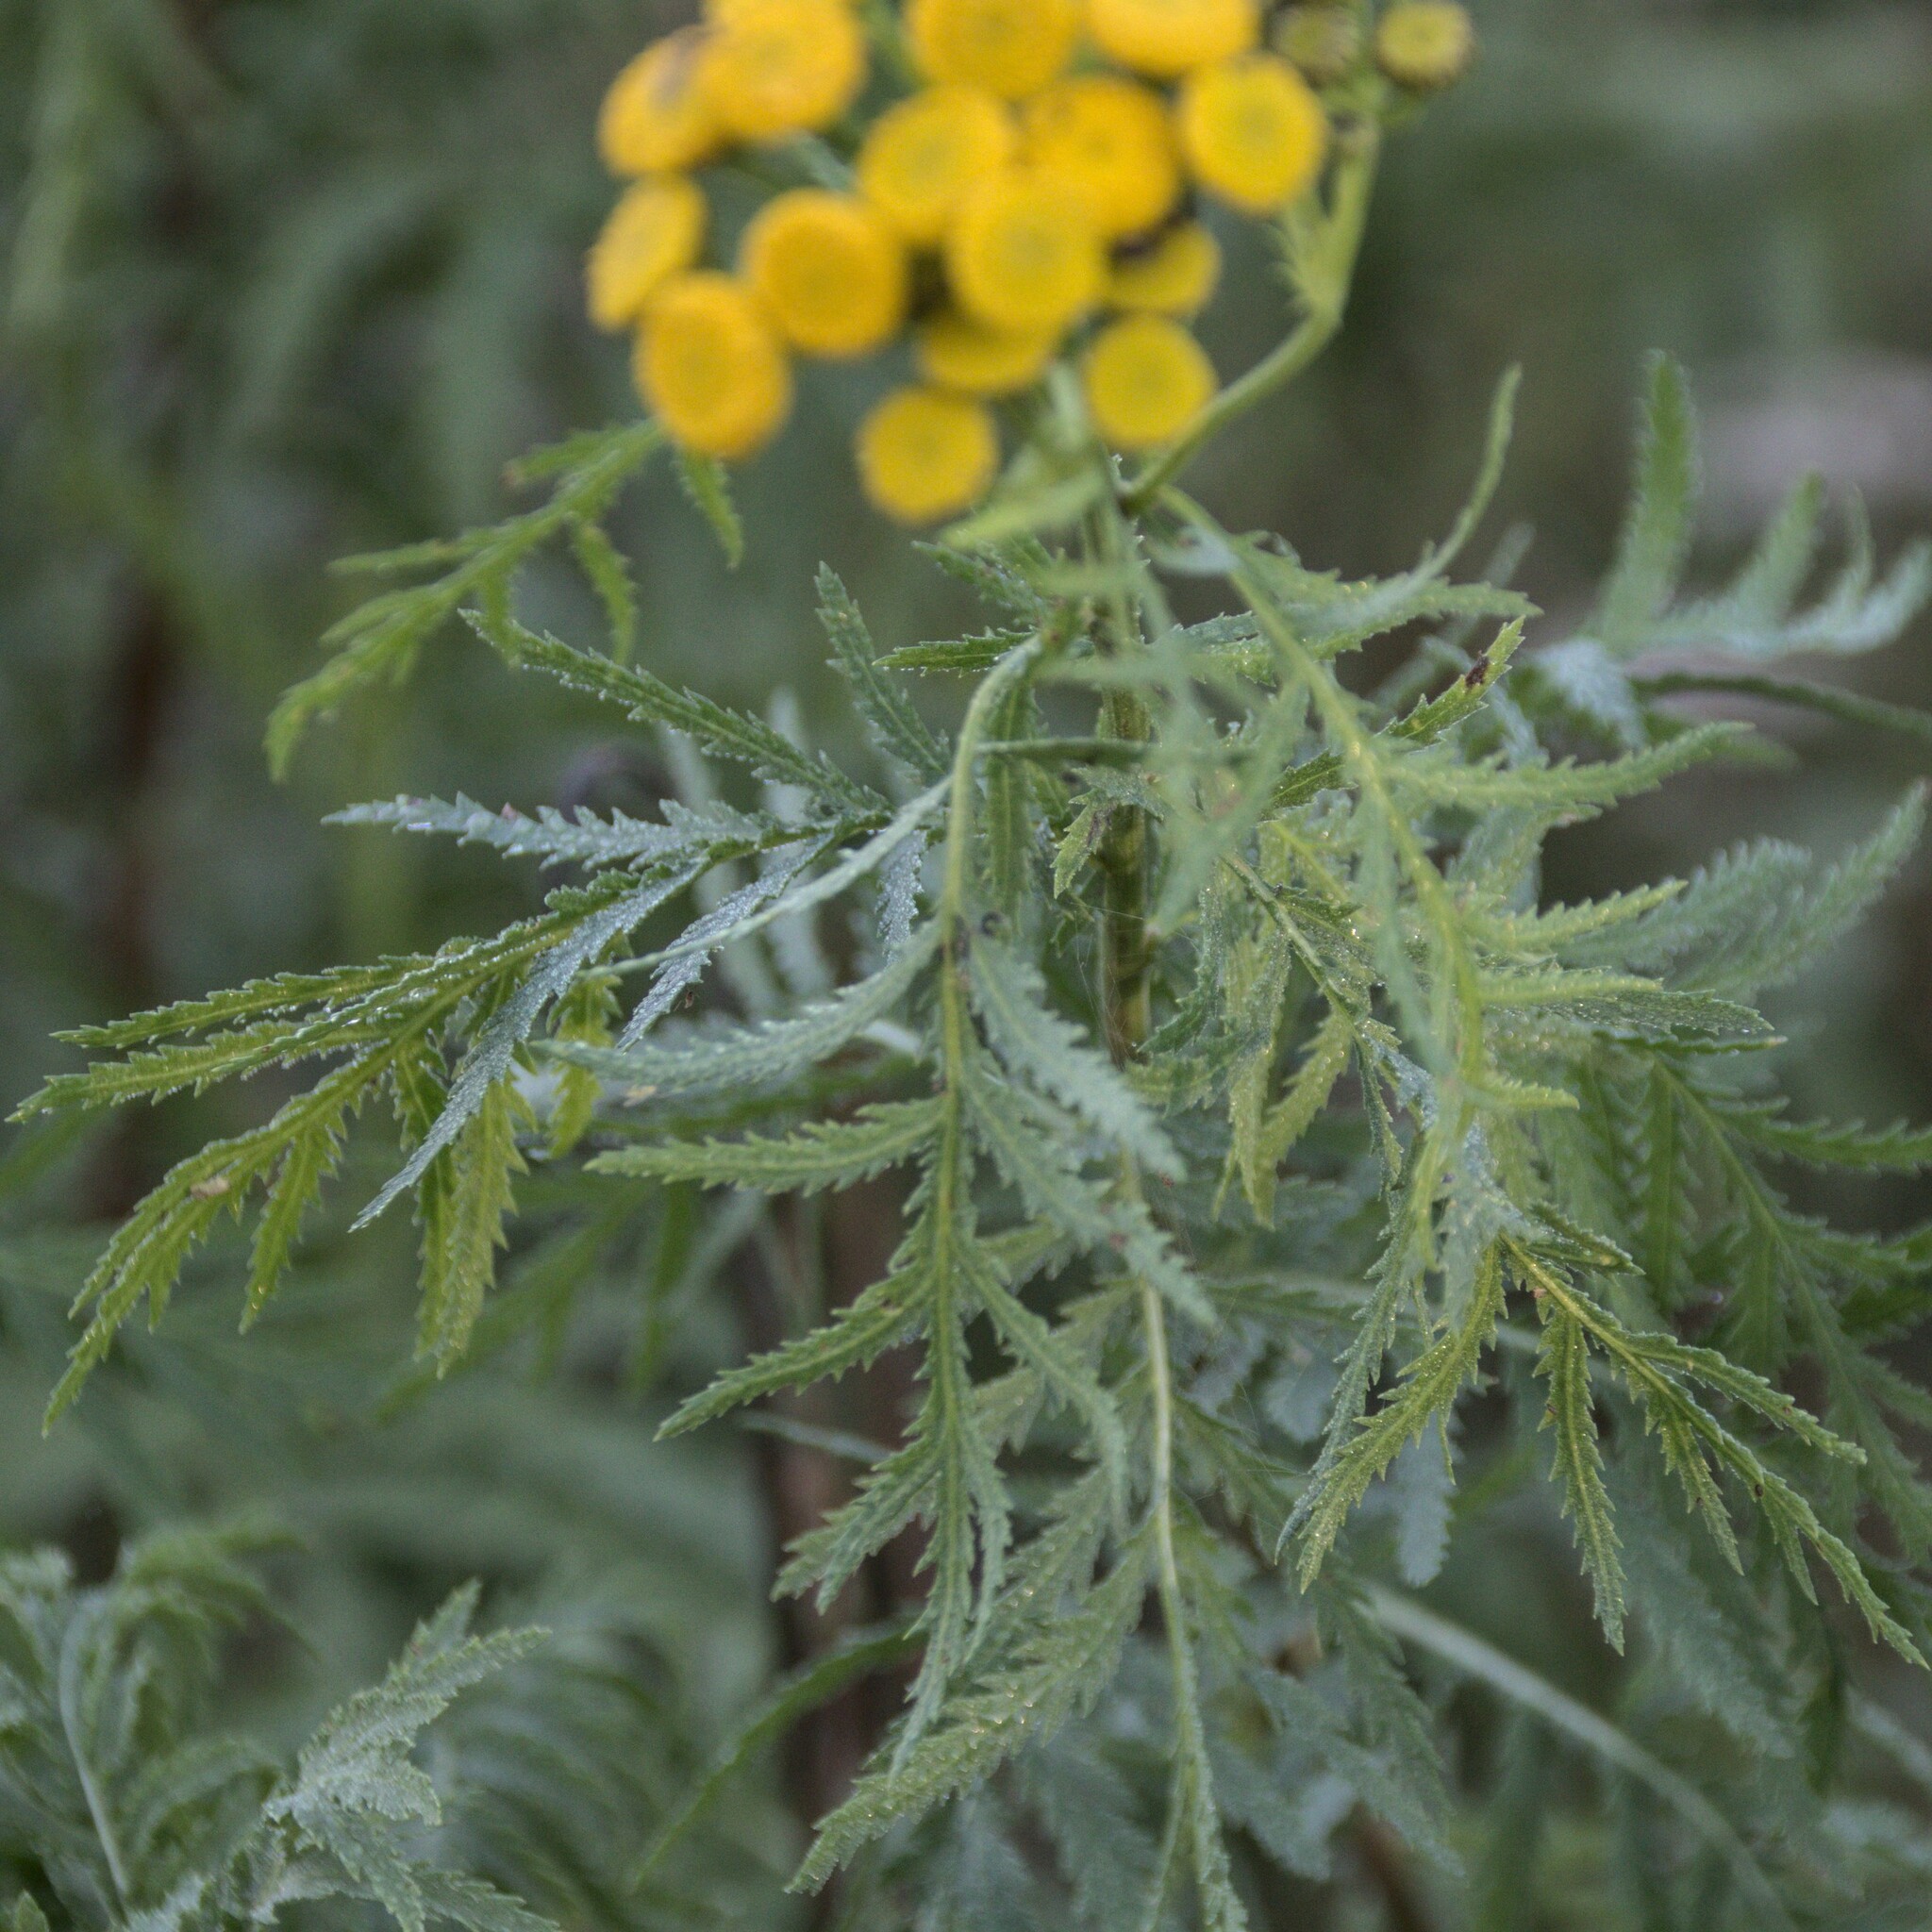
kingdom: Plantae
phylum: Tracheophyta
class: Magnoliopsida
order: Asterales
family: Asteraceae
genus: Tanacetum
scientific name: Tanacetum vulgare
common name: Common tansy
